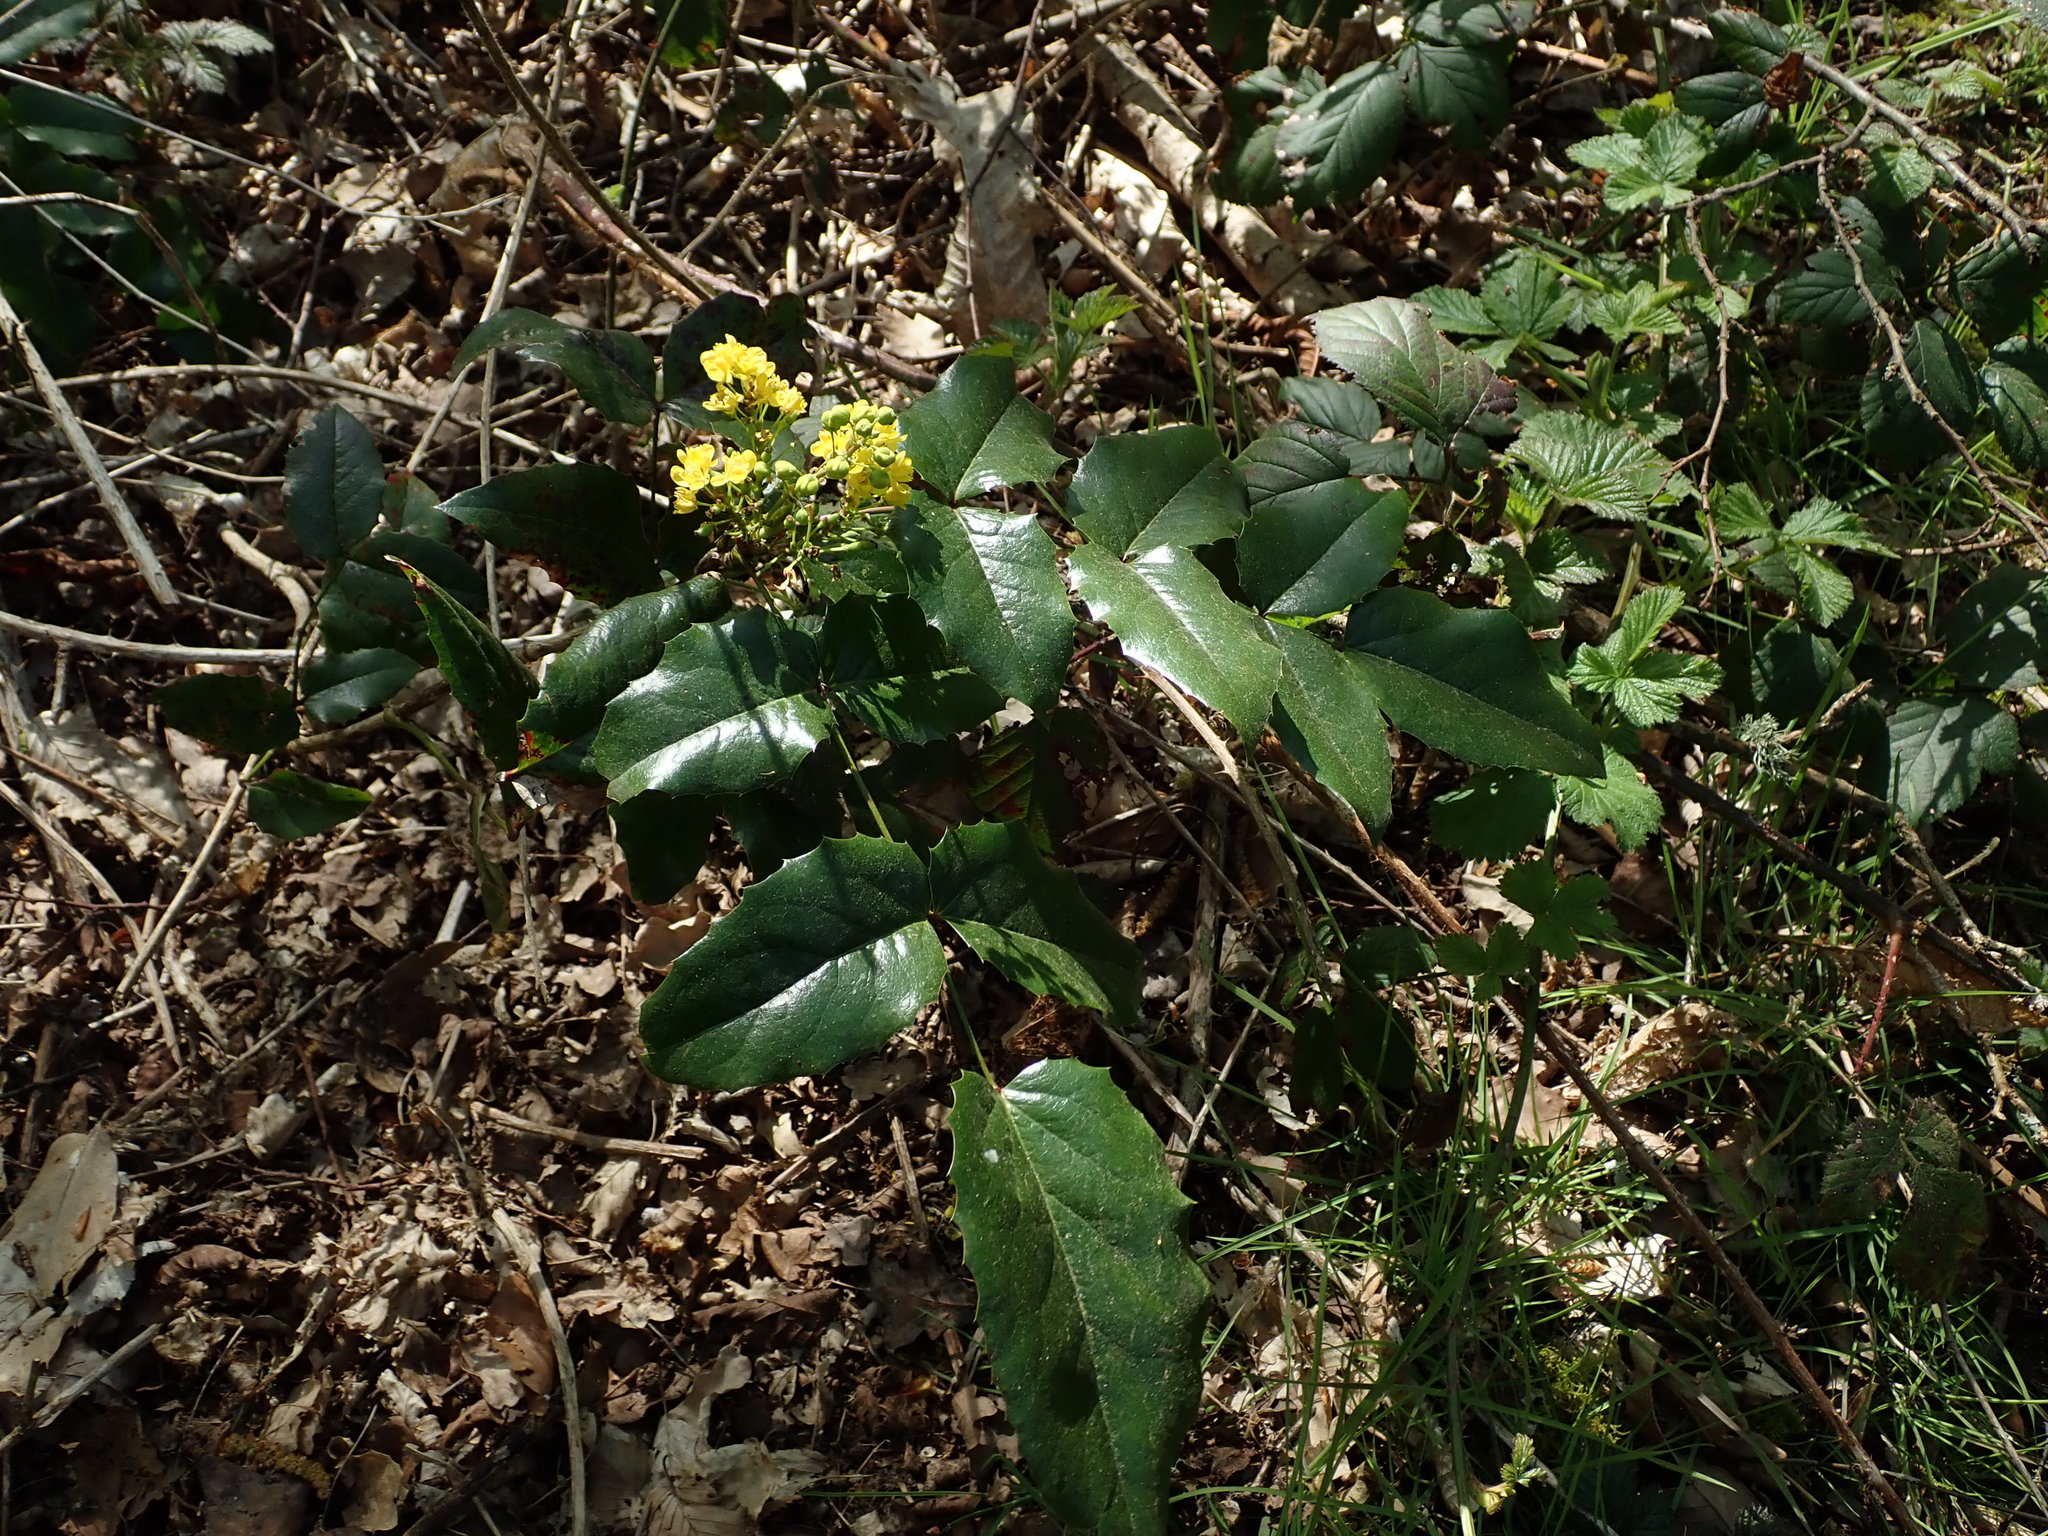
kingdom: Plantae
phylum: Tracheophyta
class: Magnoliopsida
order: Ranunculales
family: Berberidaceae
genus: Mahonia
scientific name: Mahonia aquifolium
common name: Oregon-grape
